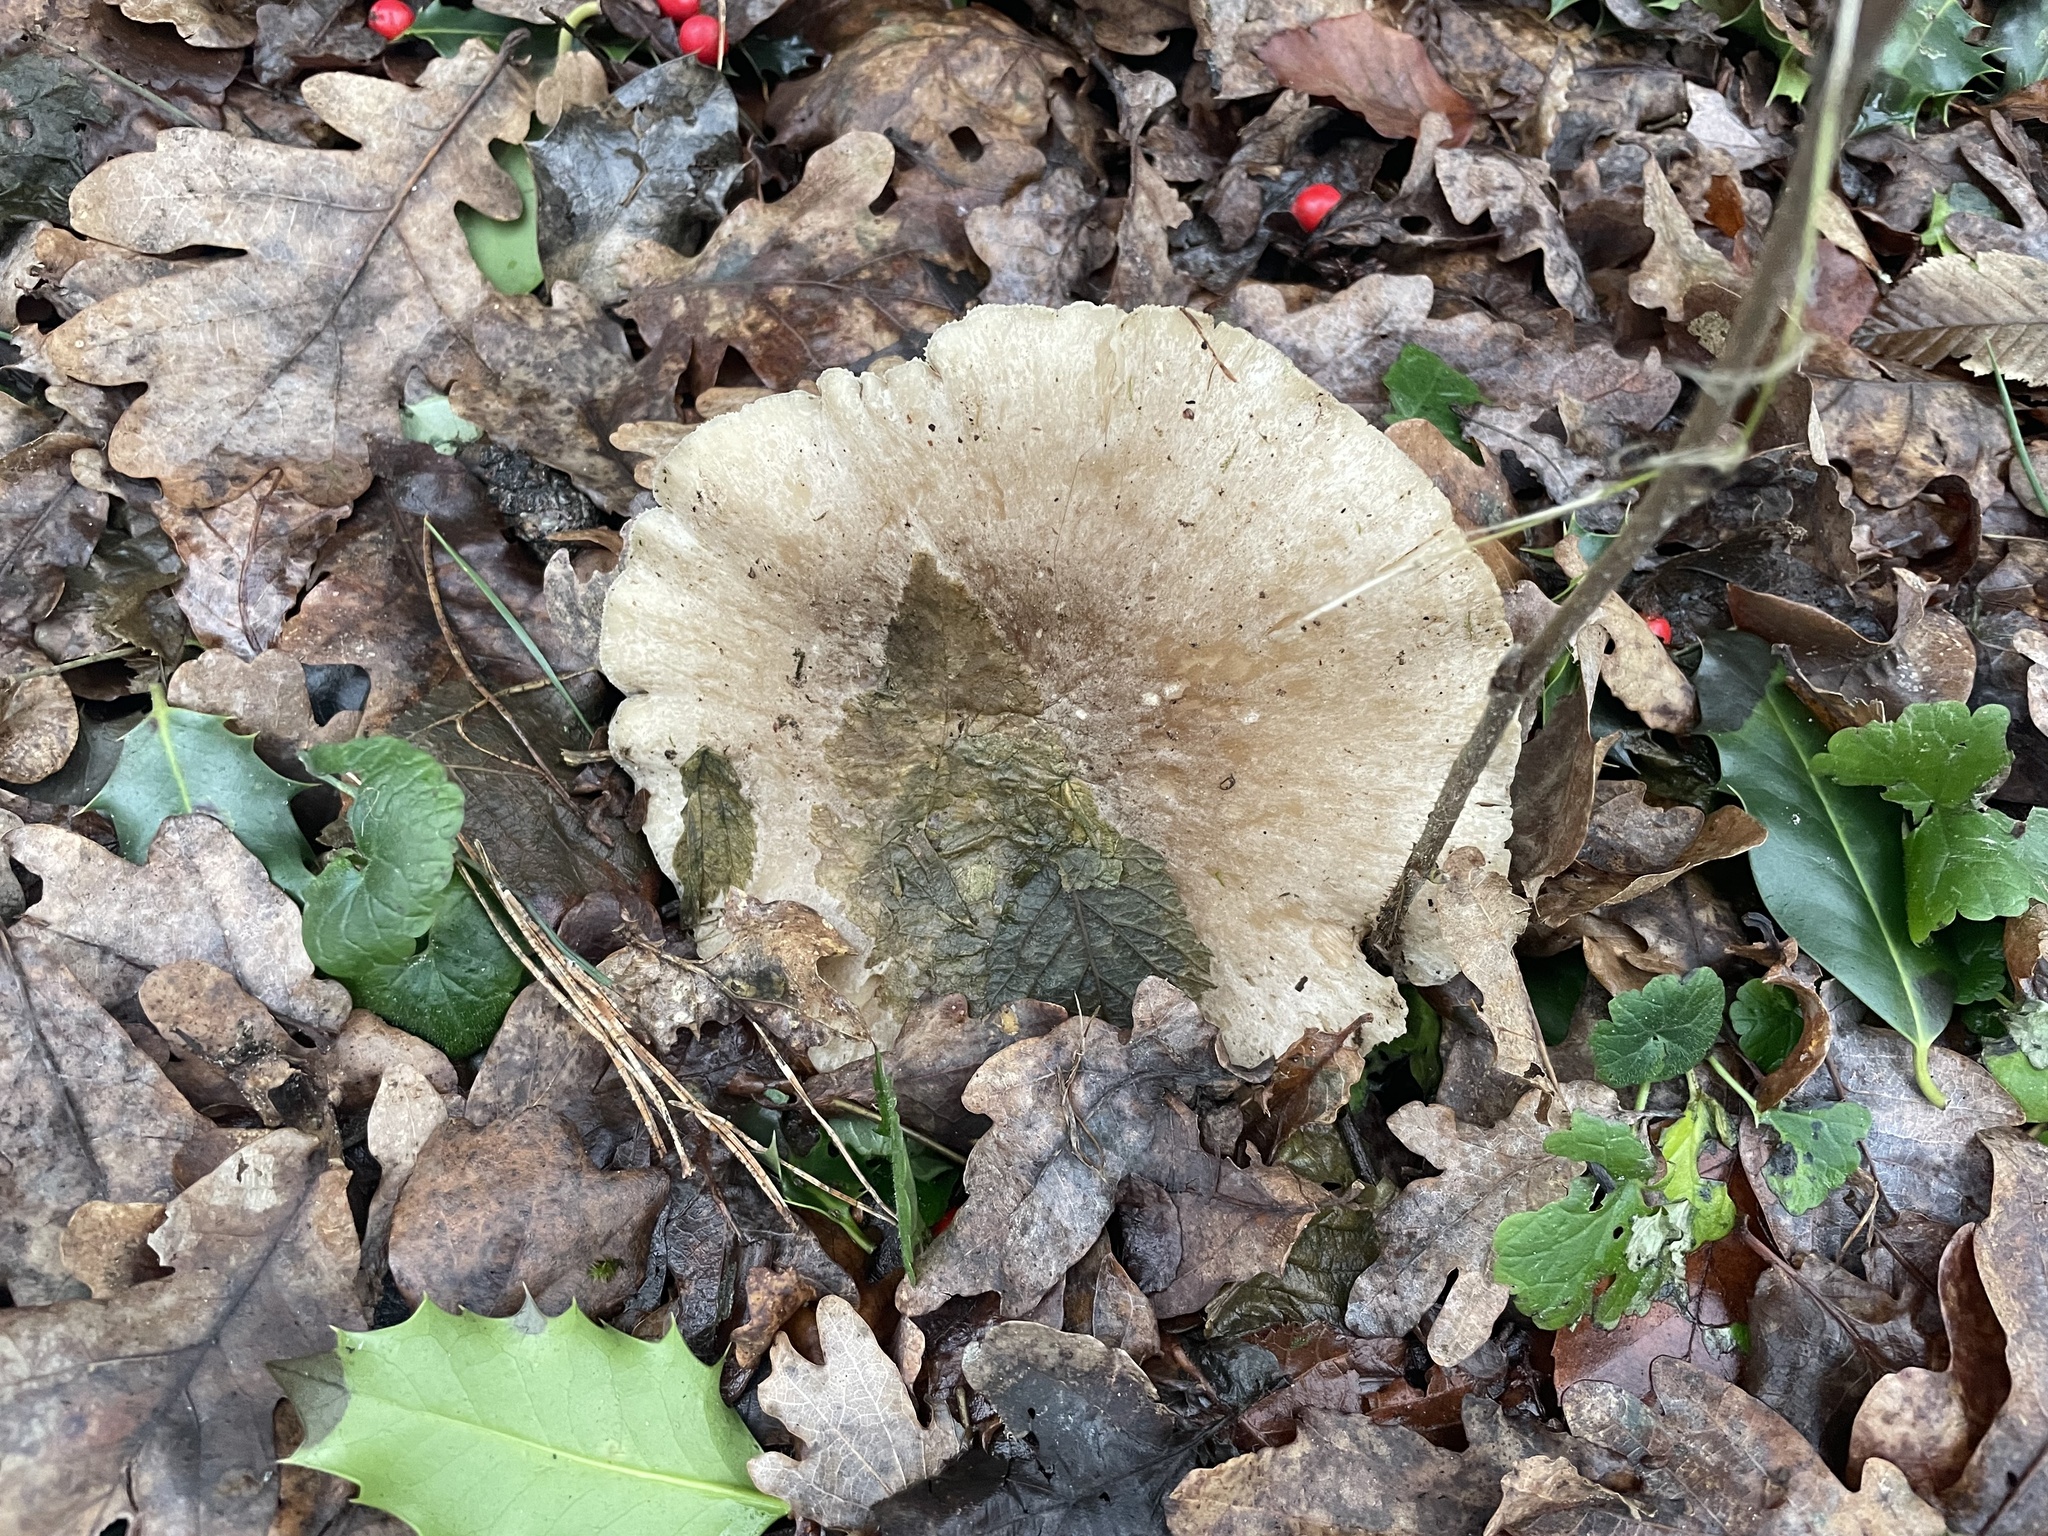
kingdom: Fungi
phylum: Basidiomycota
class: Agaricomycetes
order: Agaricales
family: Tricholomataceae
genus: Clitocybe
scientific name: Clitocybe nebularis
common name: Clouded agaric
